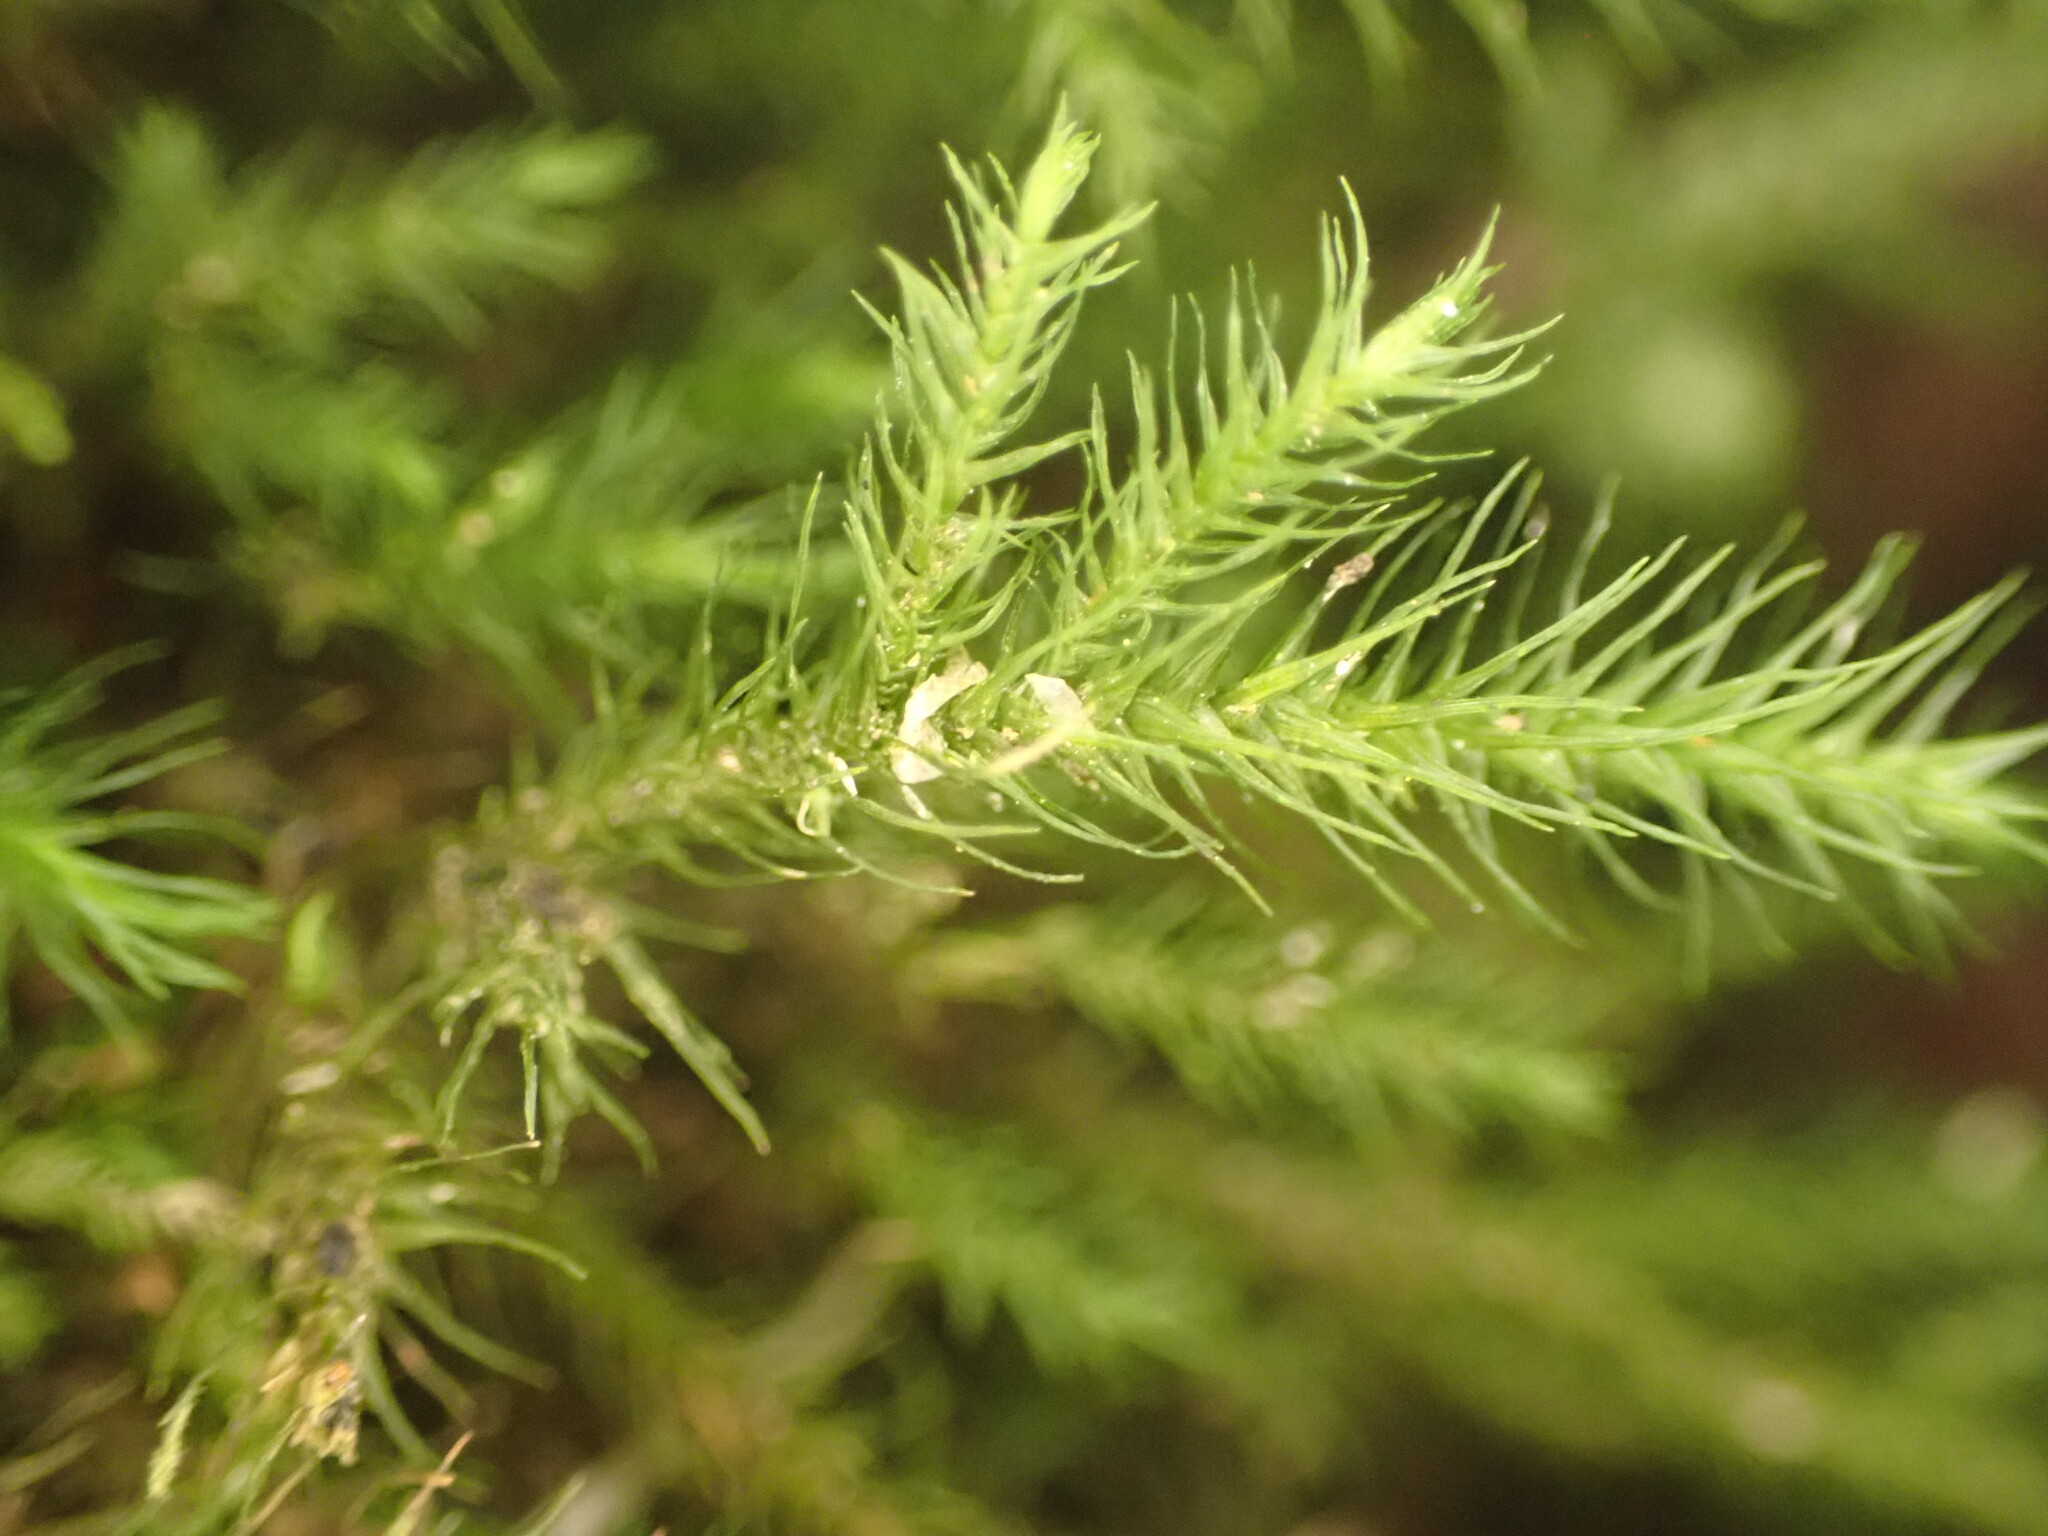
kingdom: Plantae
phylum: Bryophyta
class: Bryopsida
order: Hypnales
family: Neckeraceae
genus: Echinodiopsis
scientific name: Echinodiopsis hispida
